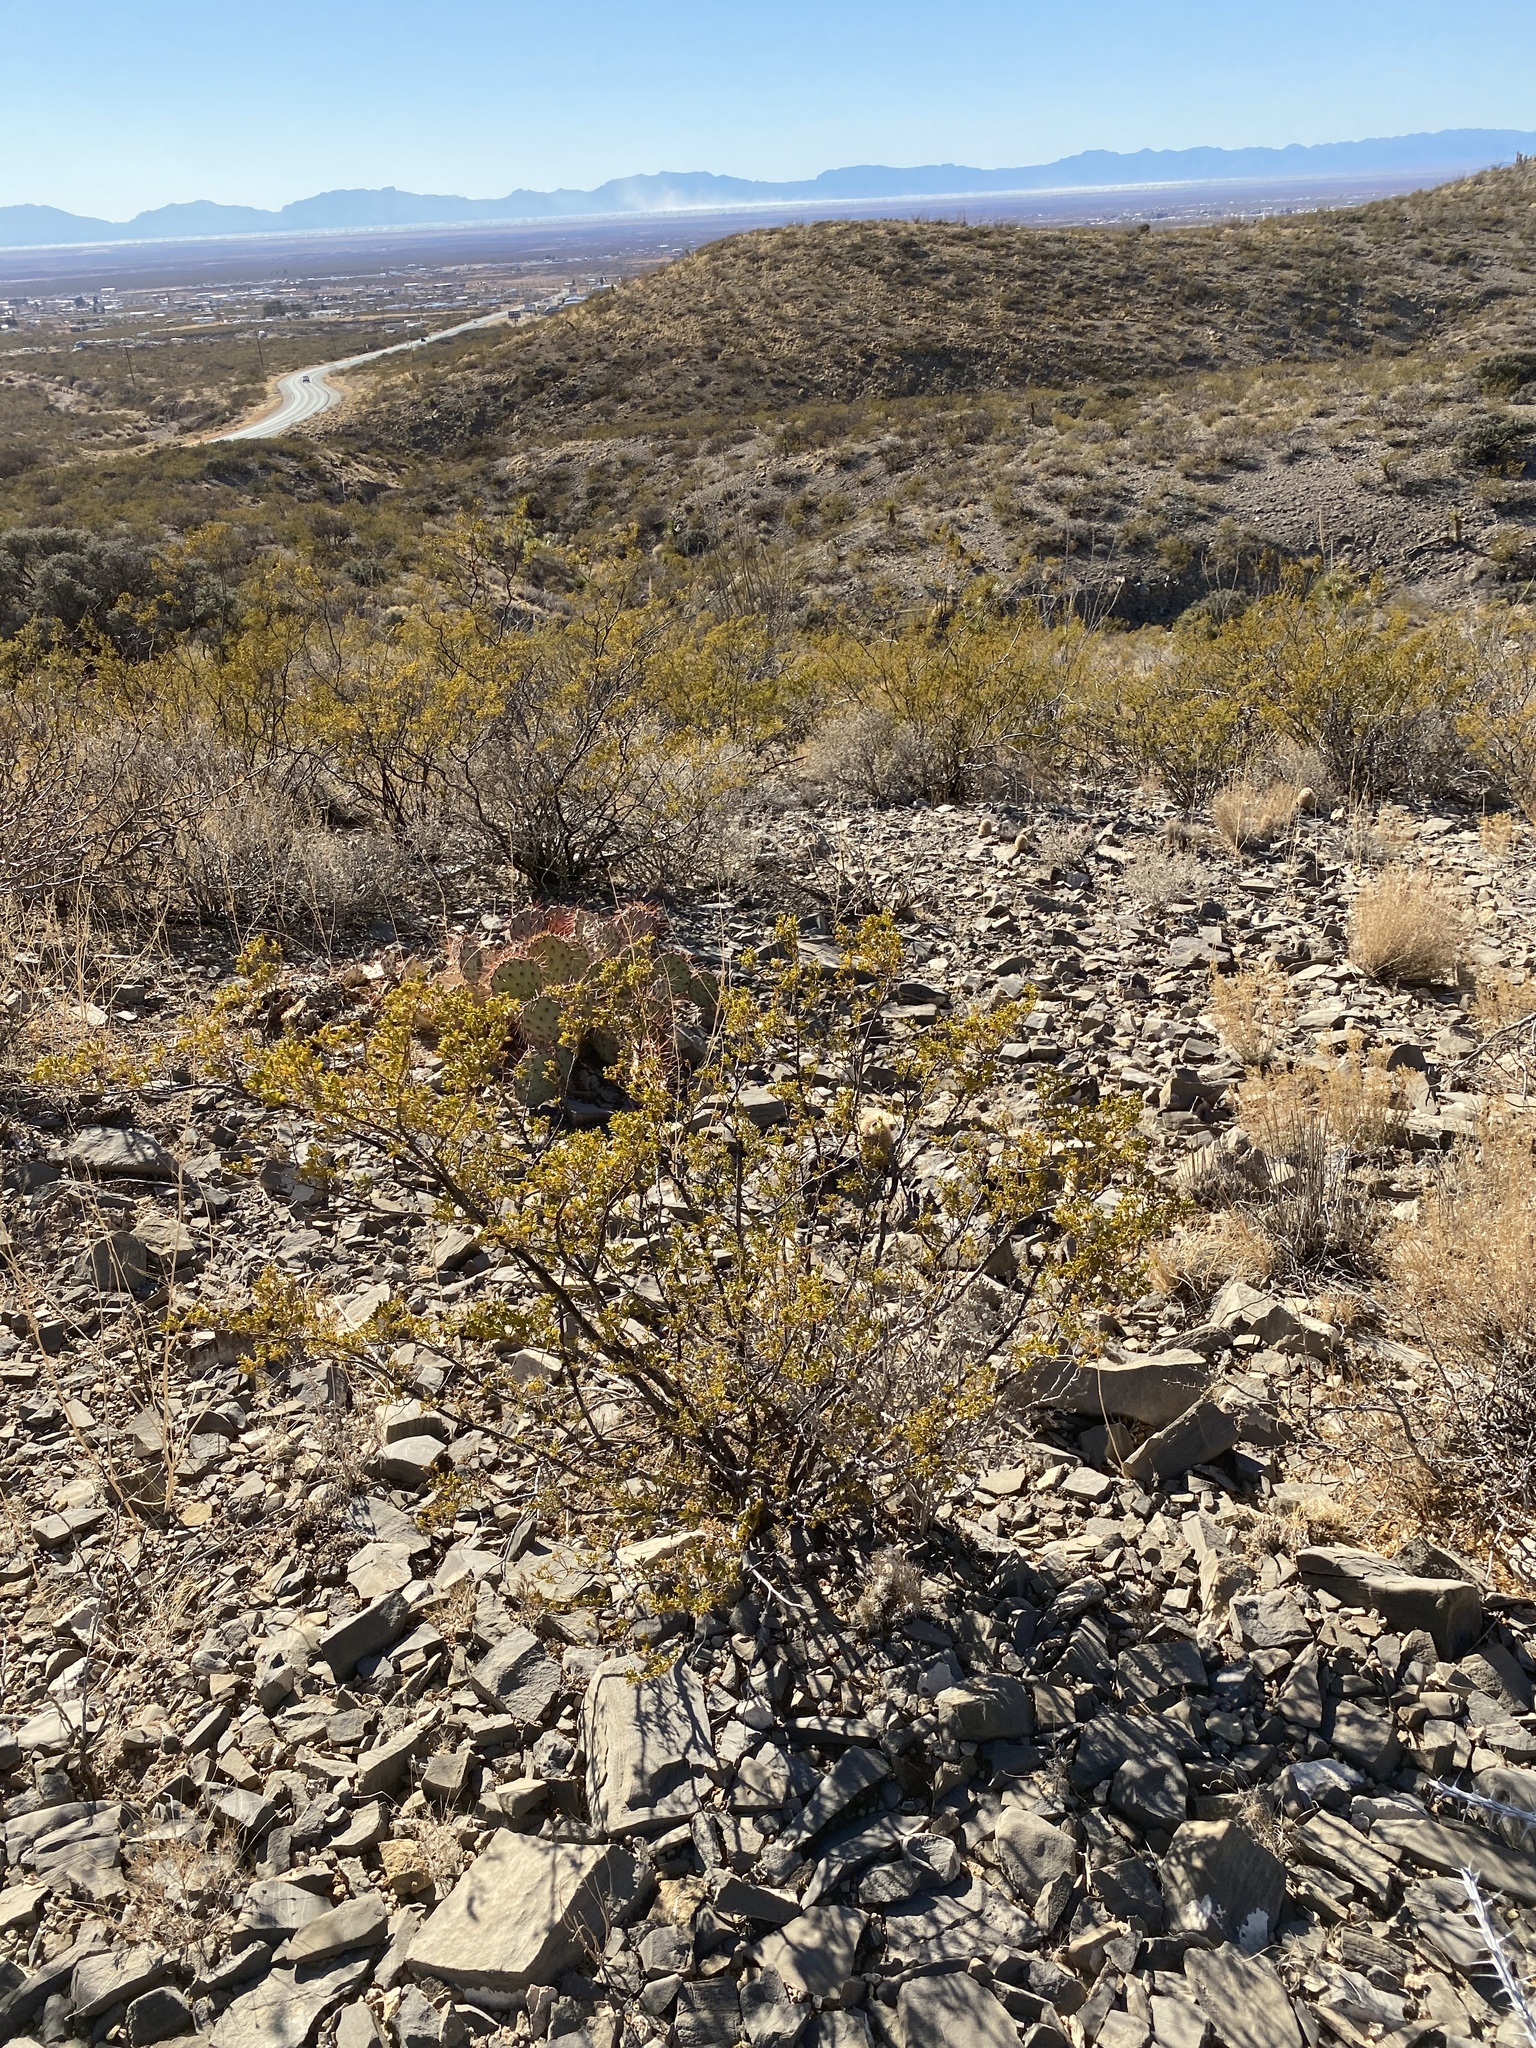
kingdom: Plantae
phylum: Tracheophyta
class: Magnoliopsida
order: Zygophyllales
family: Zygophyllaceae
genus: Larrea
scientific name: Larrea tridentata
